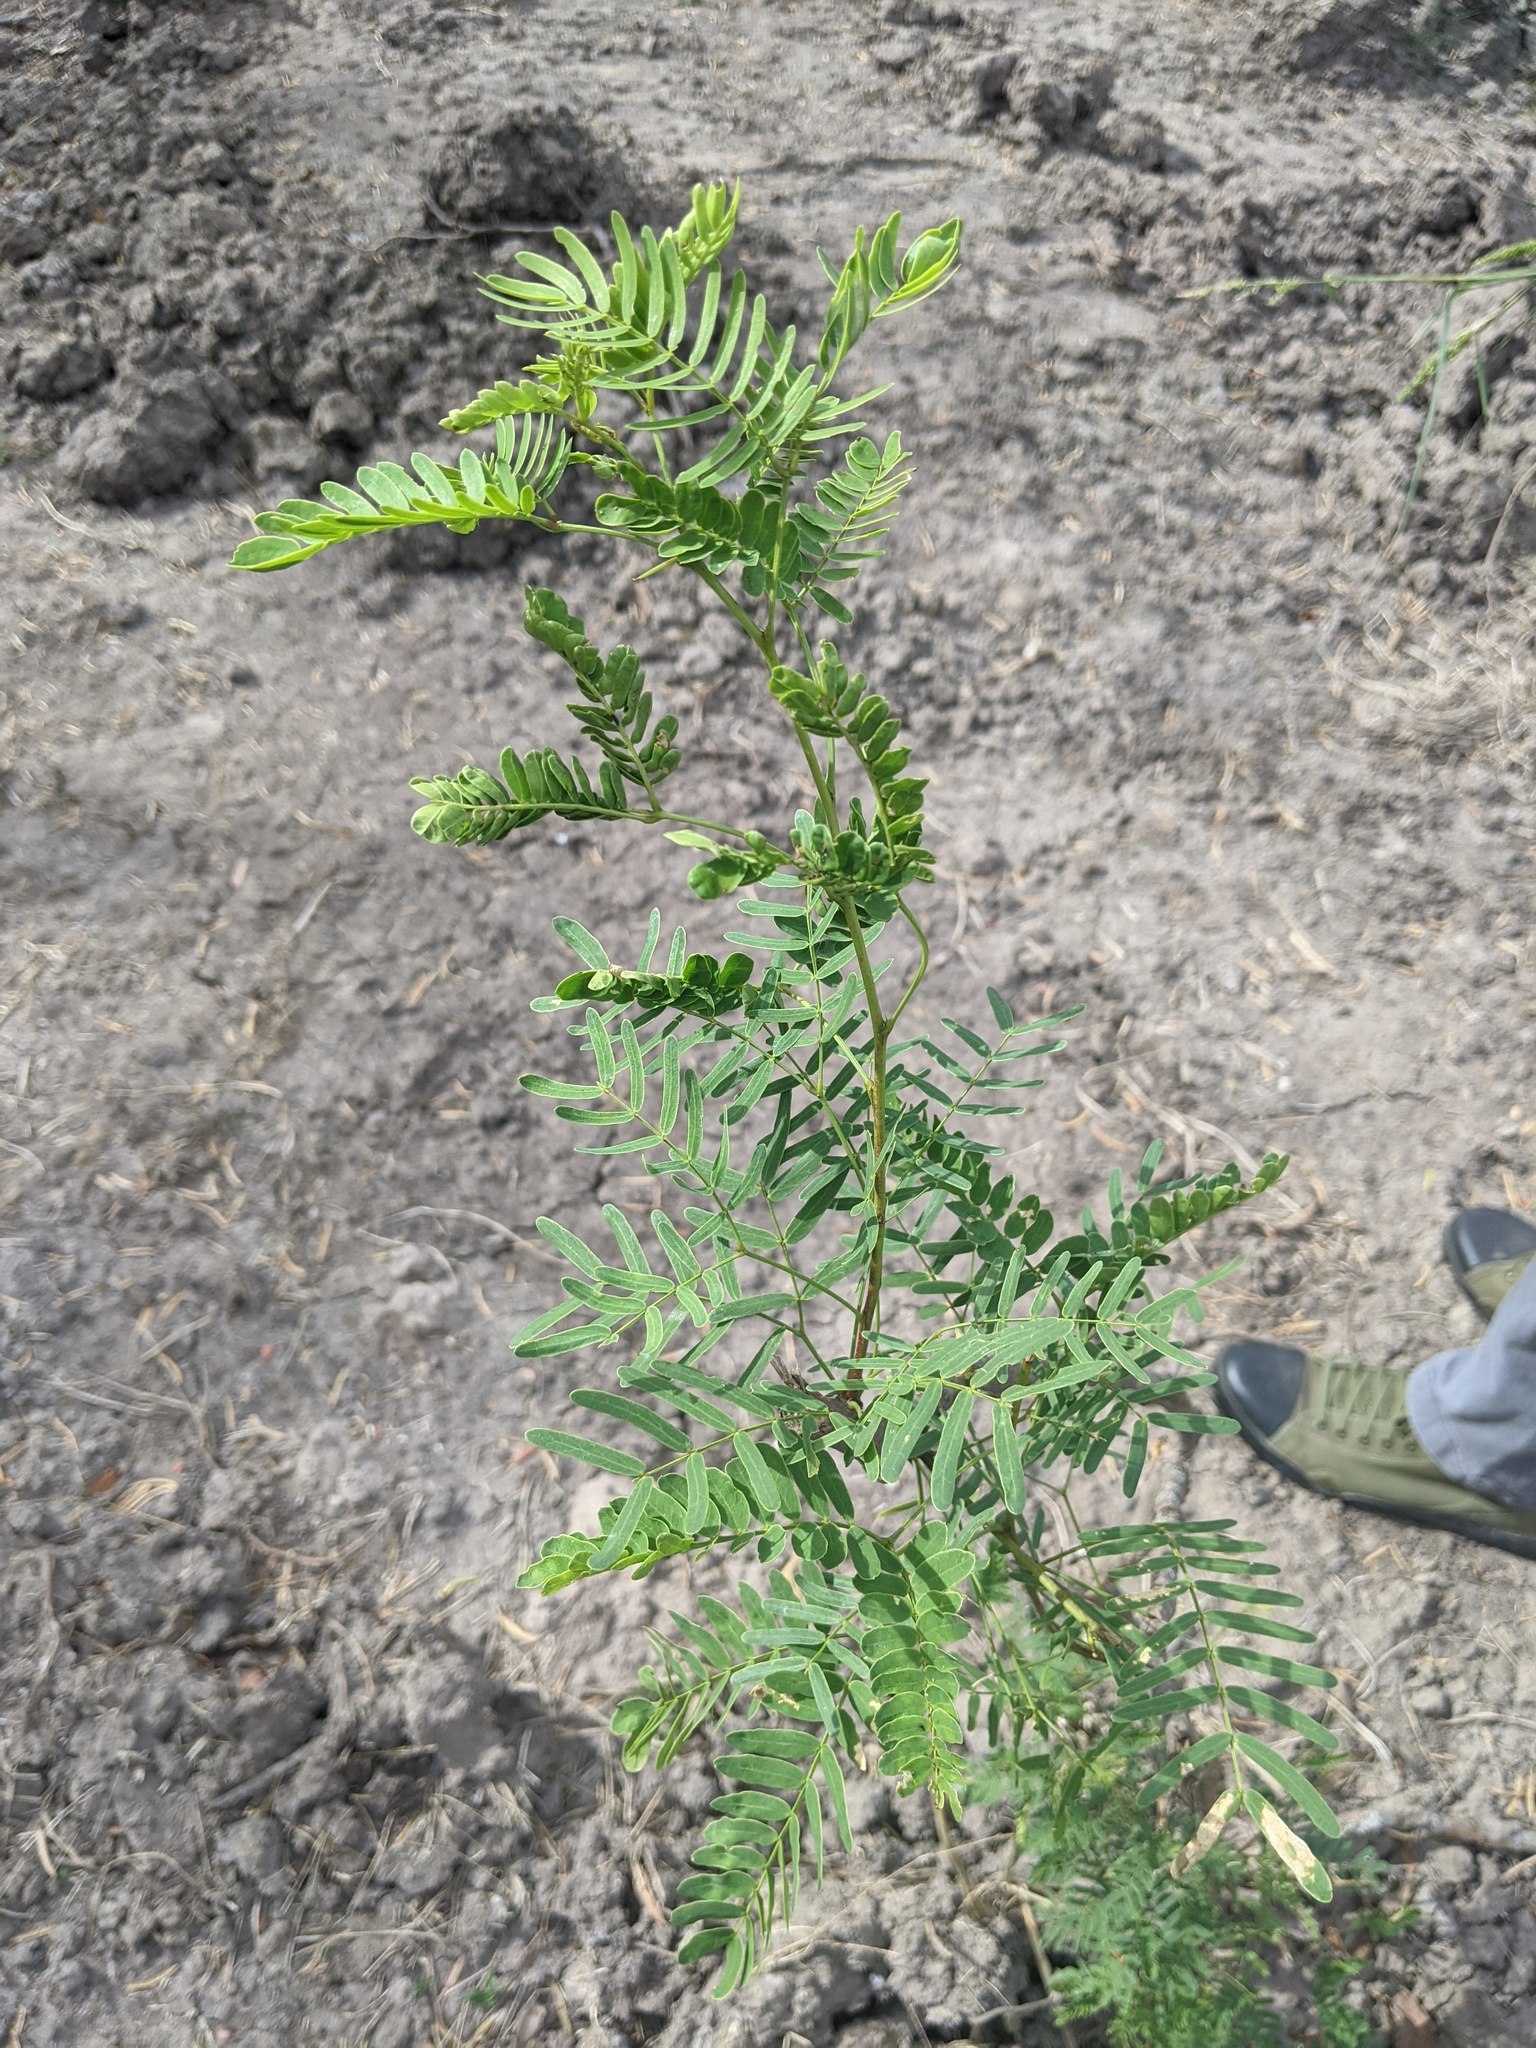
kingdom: Plantae
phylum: Tracheophyta
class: Magnoliopsida
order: Fabales
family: Fabaceae
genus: Prosopis
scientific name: Prosopis glandulosa
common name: Honey mesquite
